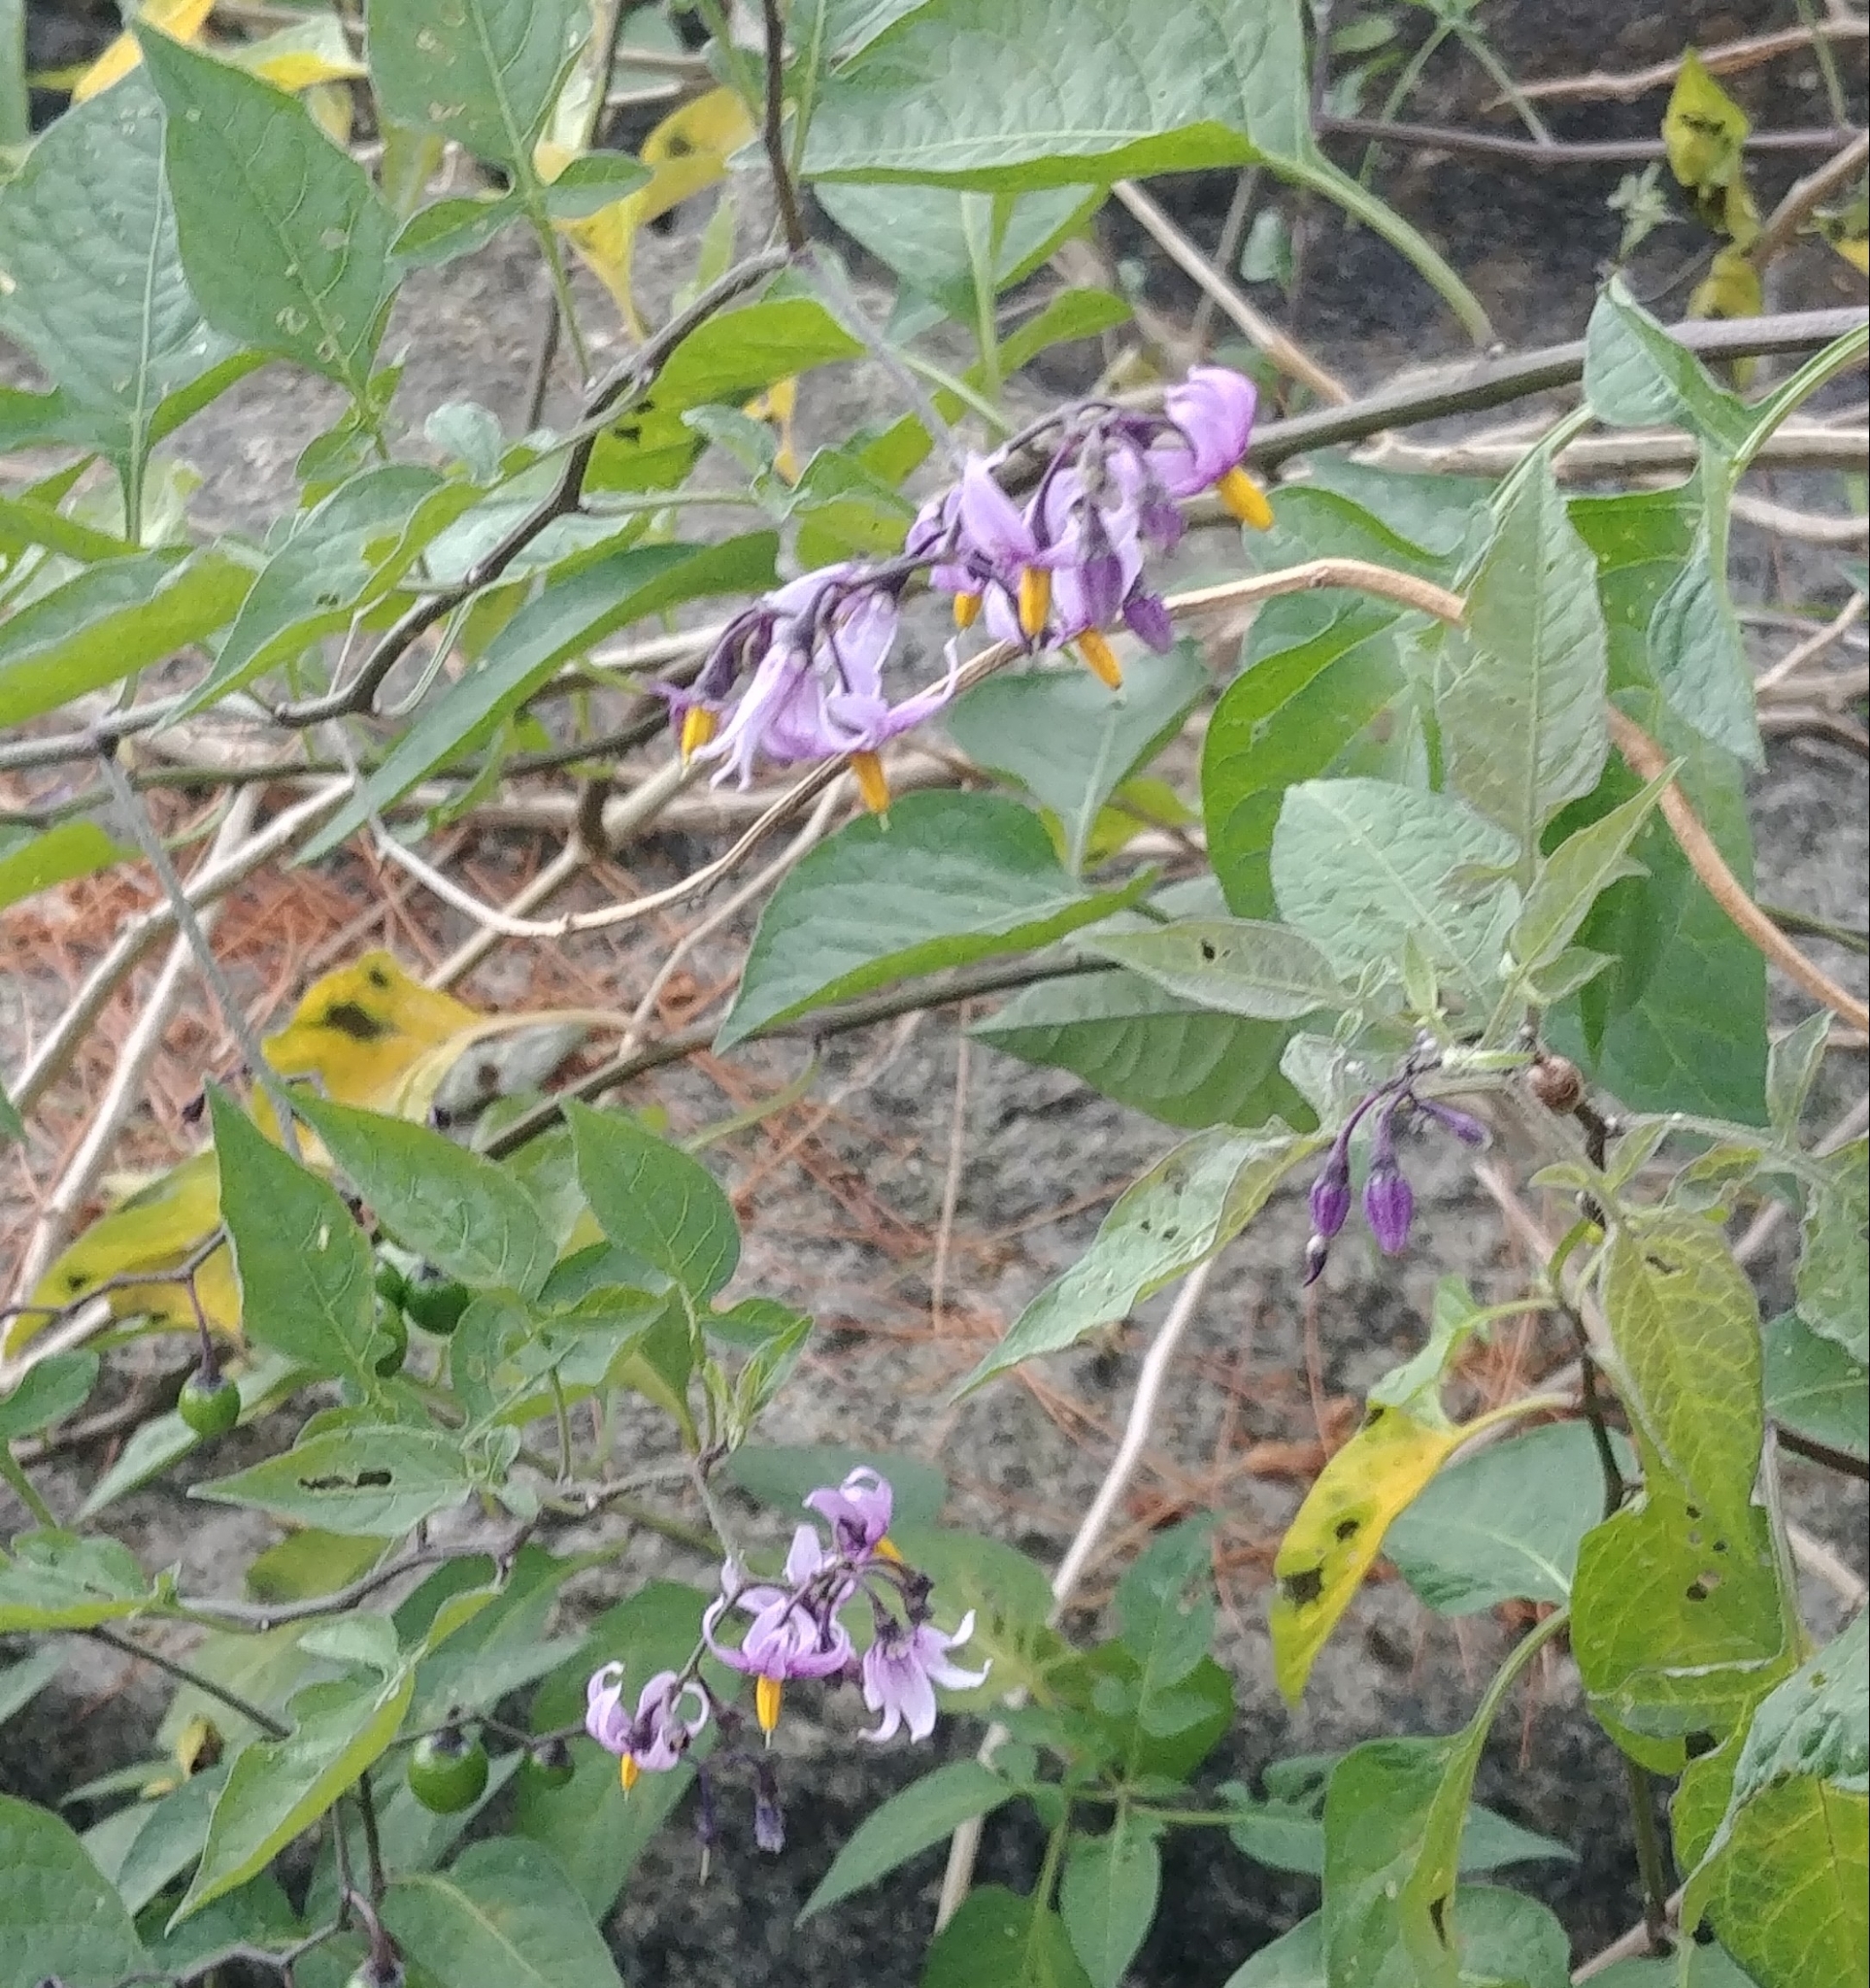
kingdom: Plantae
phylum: Tracheophyta
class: Magnoliopsida
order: Solanales
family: Solanaceae
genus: Solanum
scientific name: Solanum dulcamara
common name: Climbing nightshade
